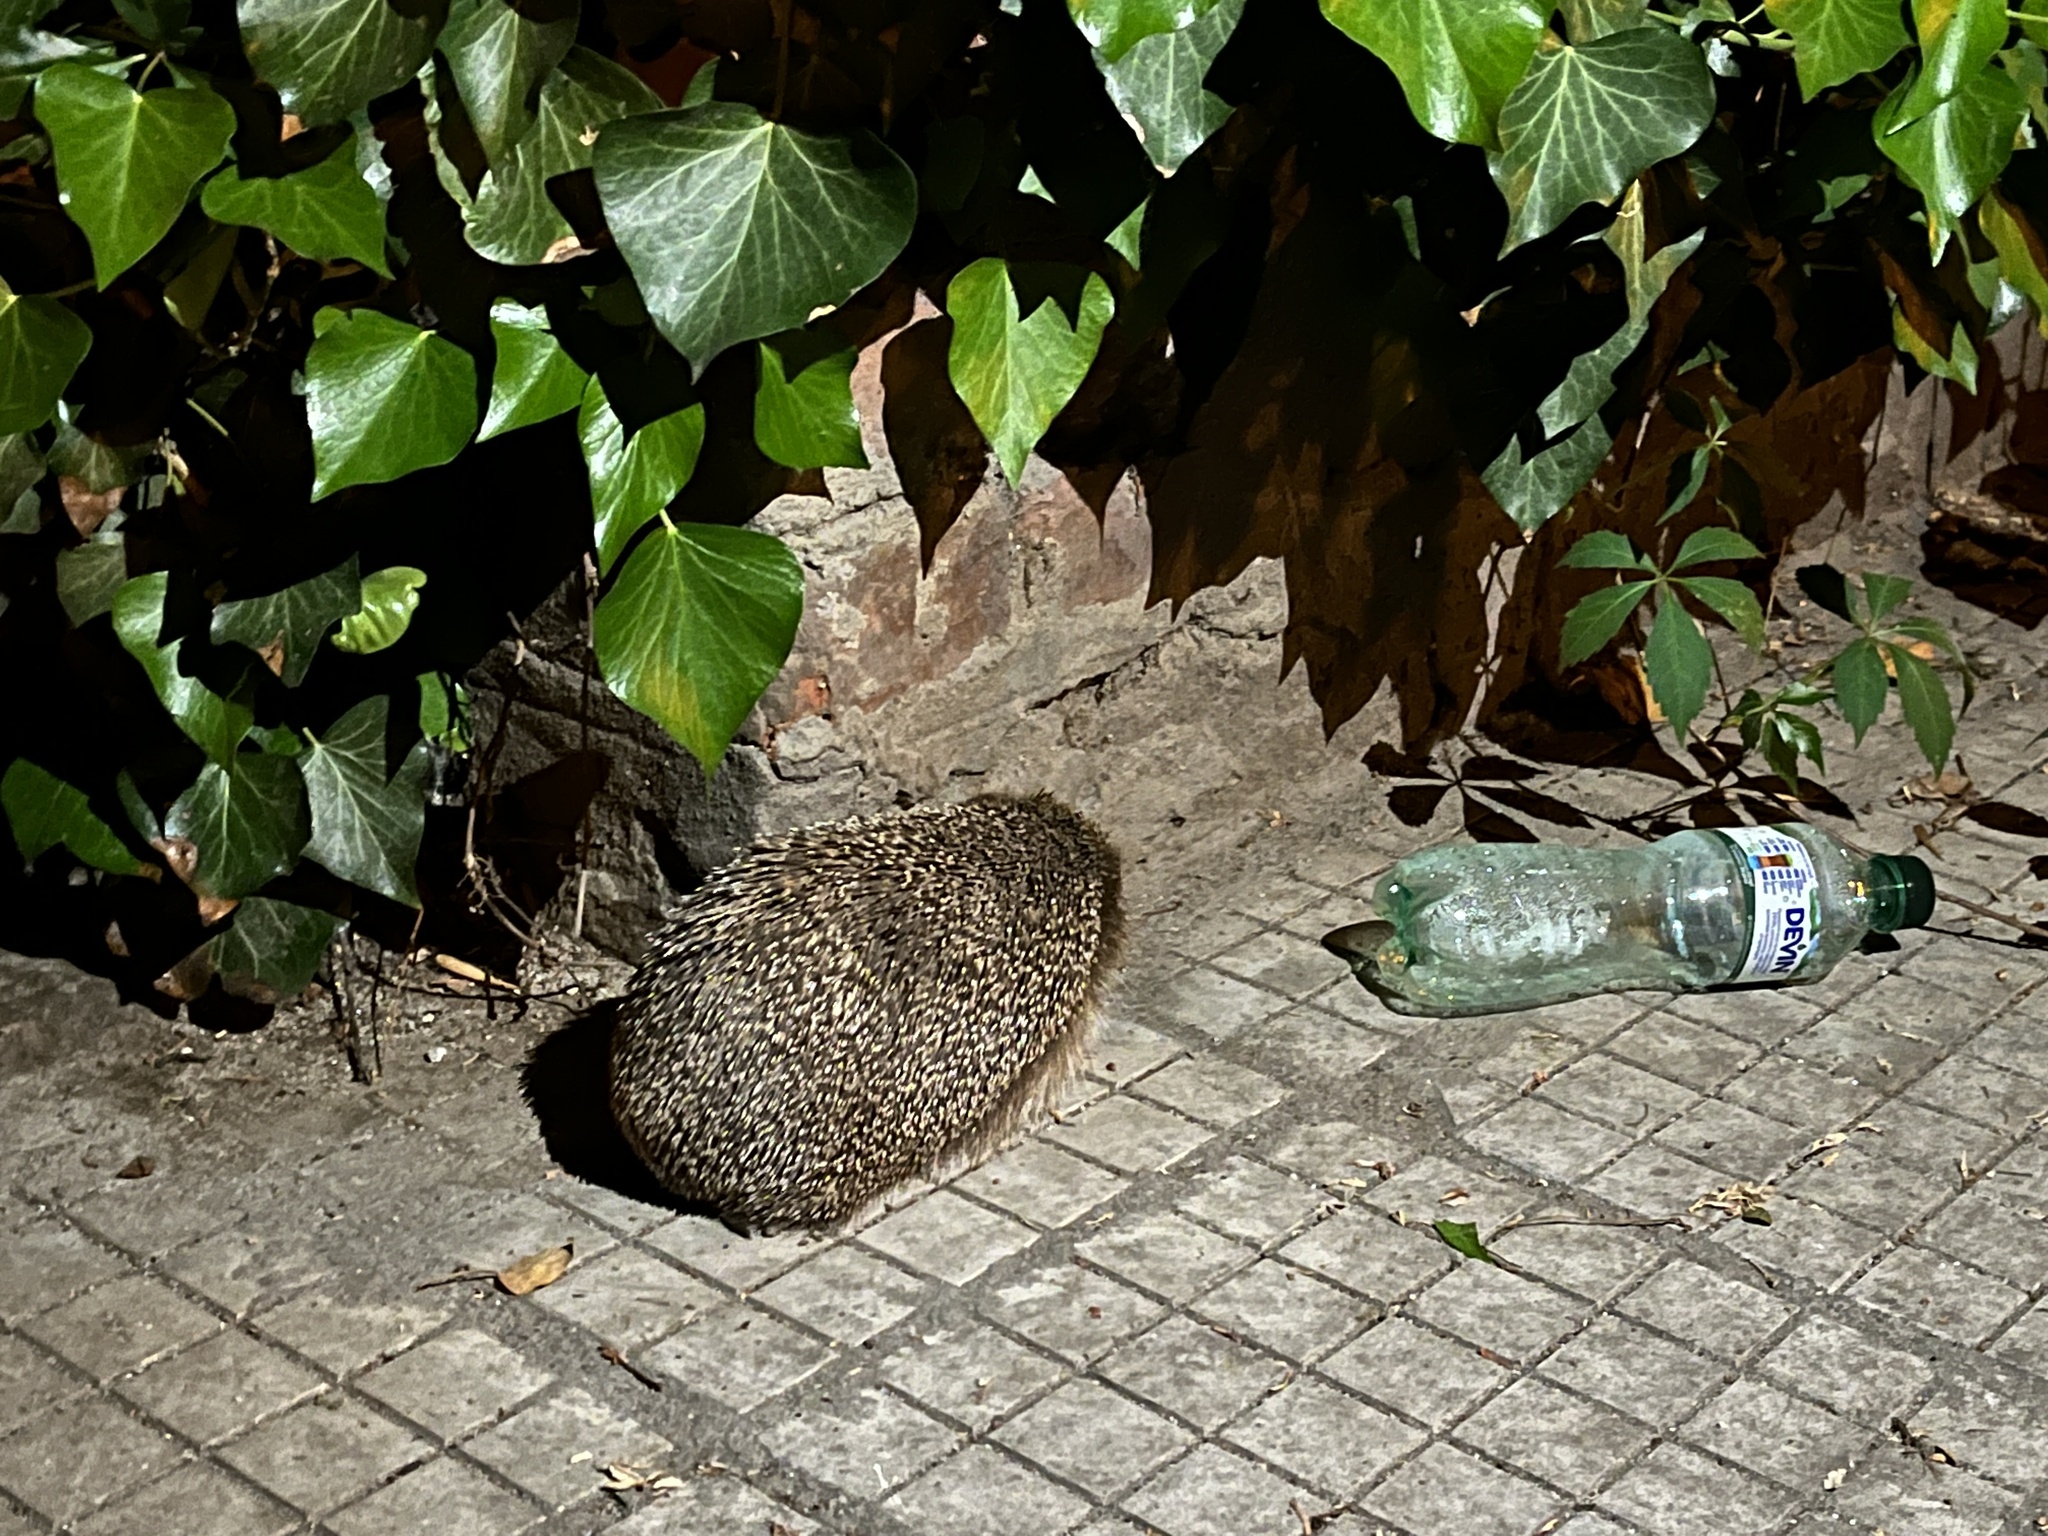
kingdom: Animalia
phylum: Chordata
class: Mammalia
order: Erinaceomorpha
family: Erinaceidae
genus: Erinaceus
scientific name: Erinaceus roumanicus
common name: Northern white-breasted hedgehog
